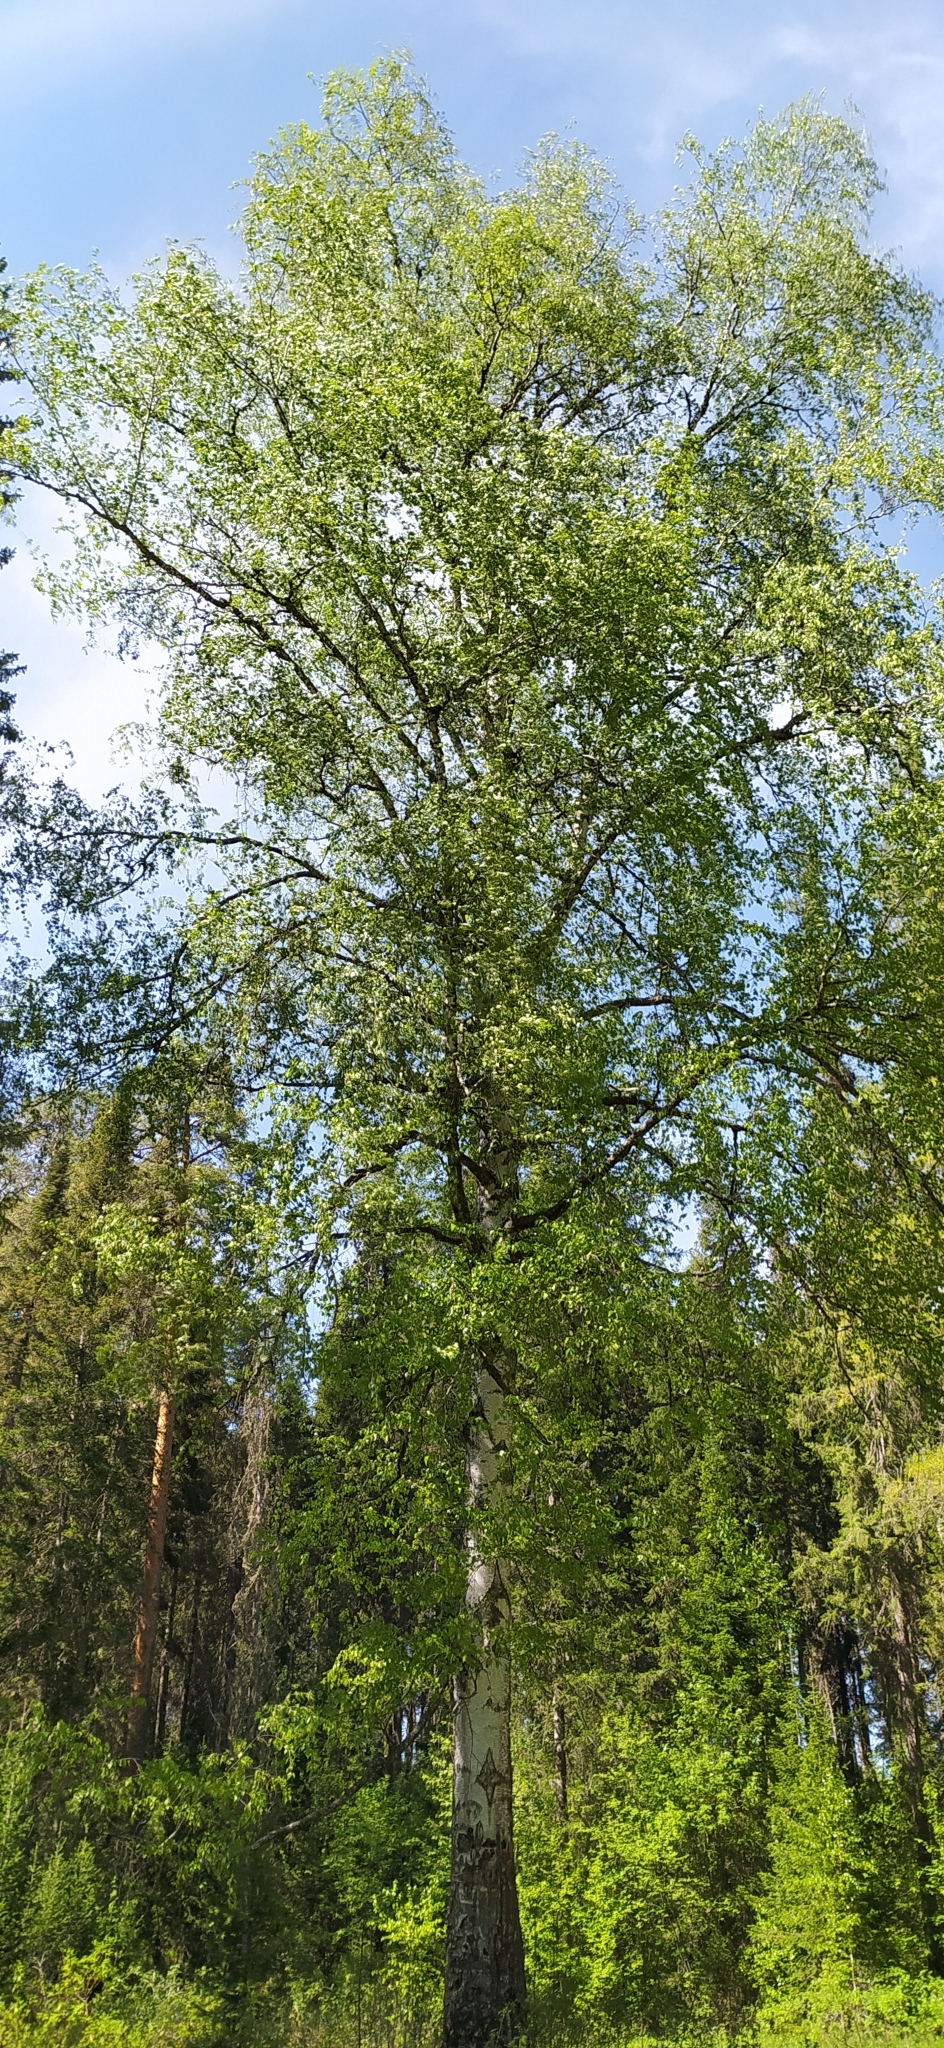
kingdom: Plantae
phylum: Tracheophyta
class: Magnoliopsida
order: Fagales
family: Betulaceae
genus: Betula
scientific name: Betula pendula
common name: Silver birch
